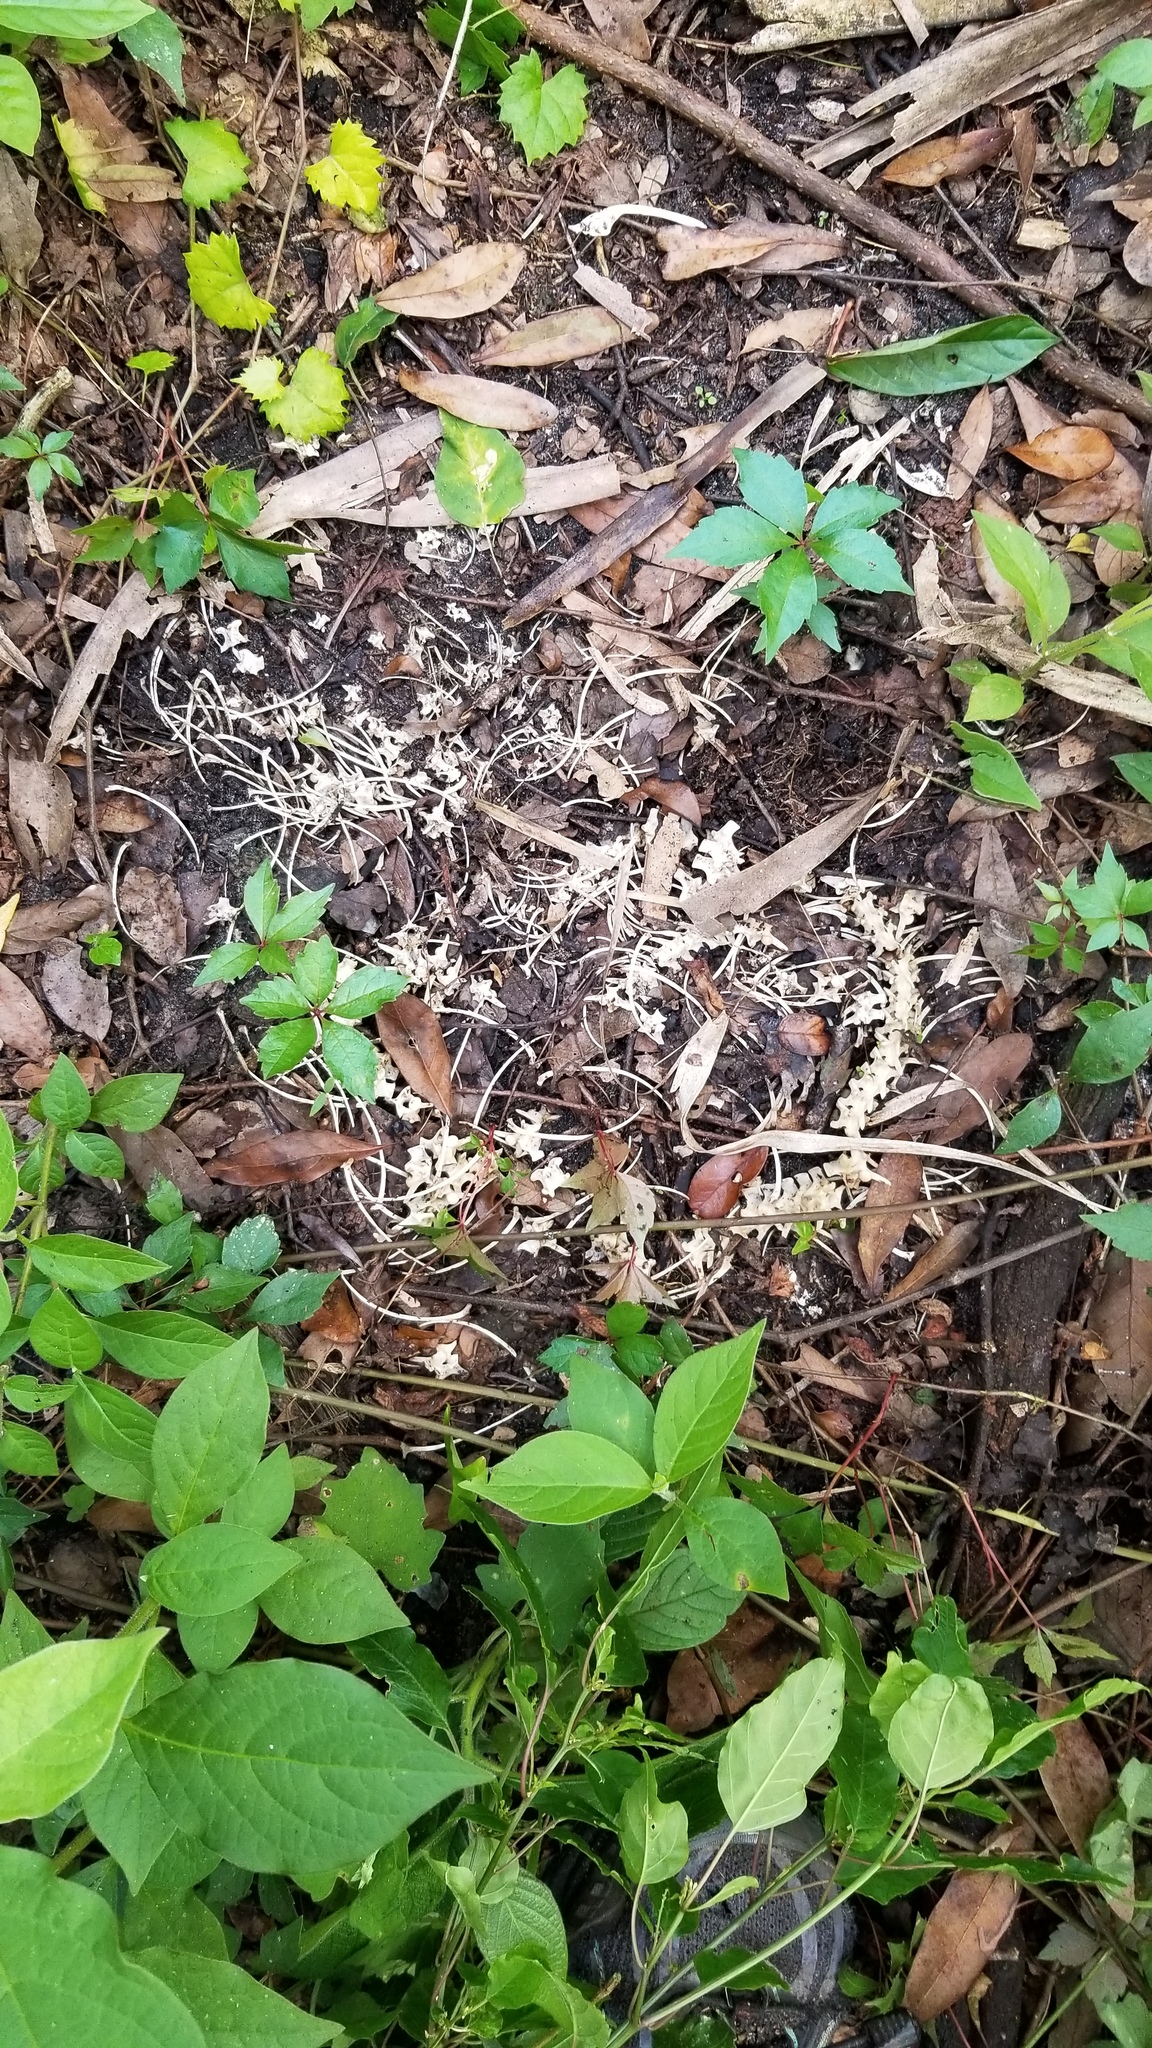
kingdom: Animalia
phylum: Chordata
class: Squamata
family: Viperidae
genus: Crotalus
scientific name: Crotalus adamanteus
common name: Eastern diamondback rattlesnake
